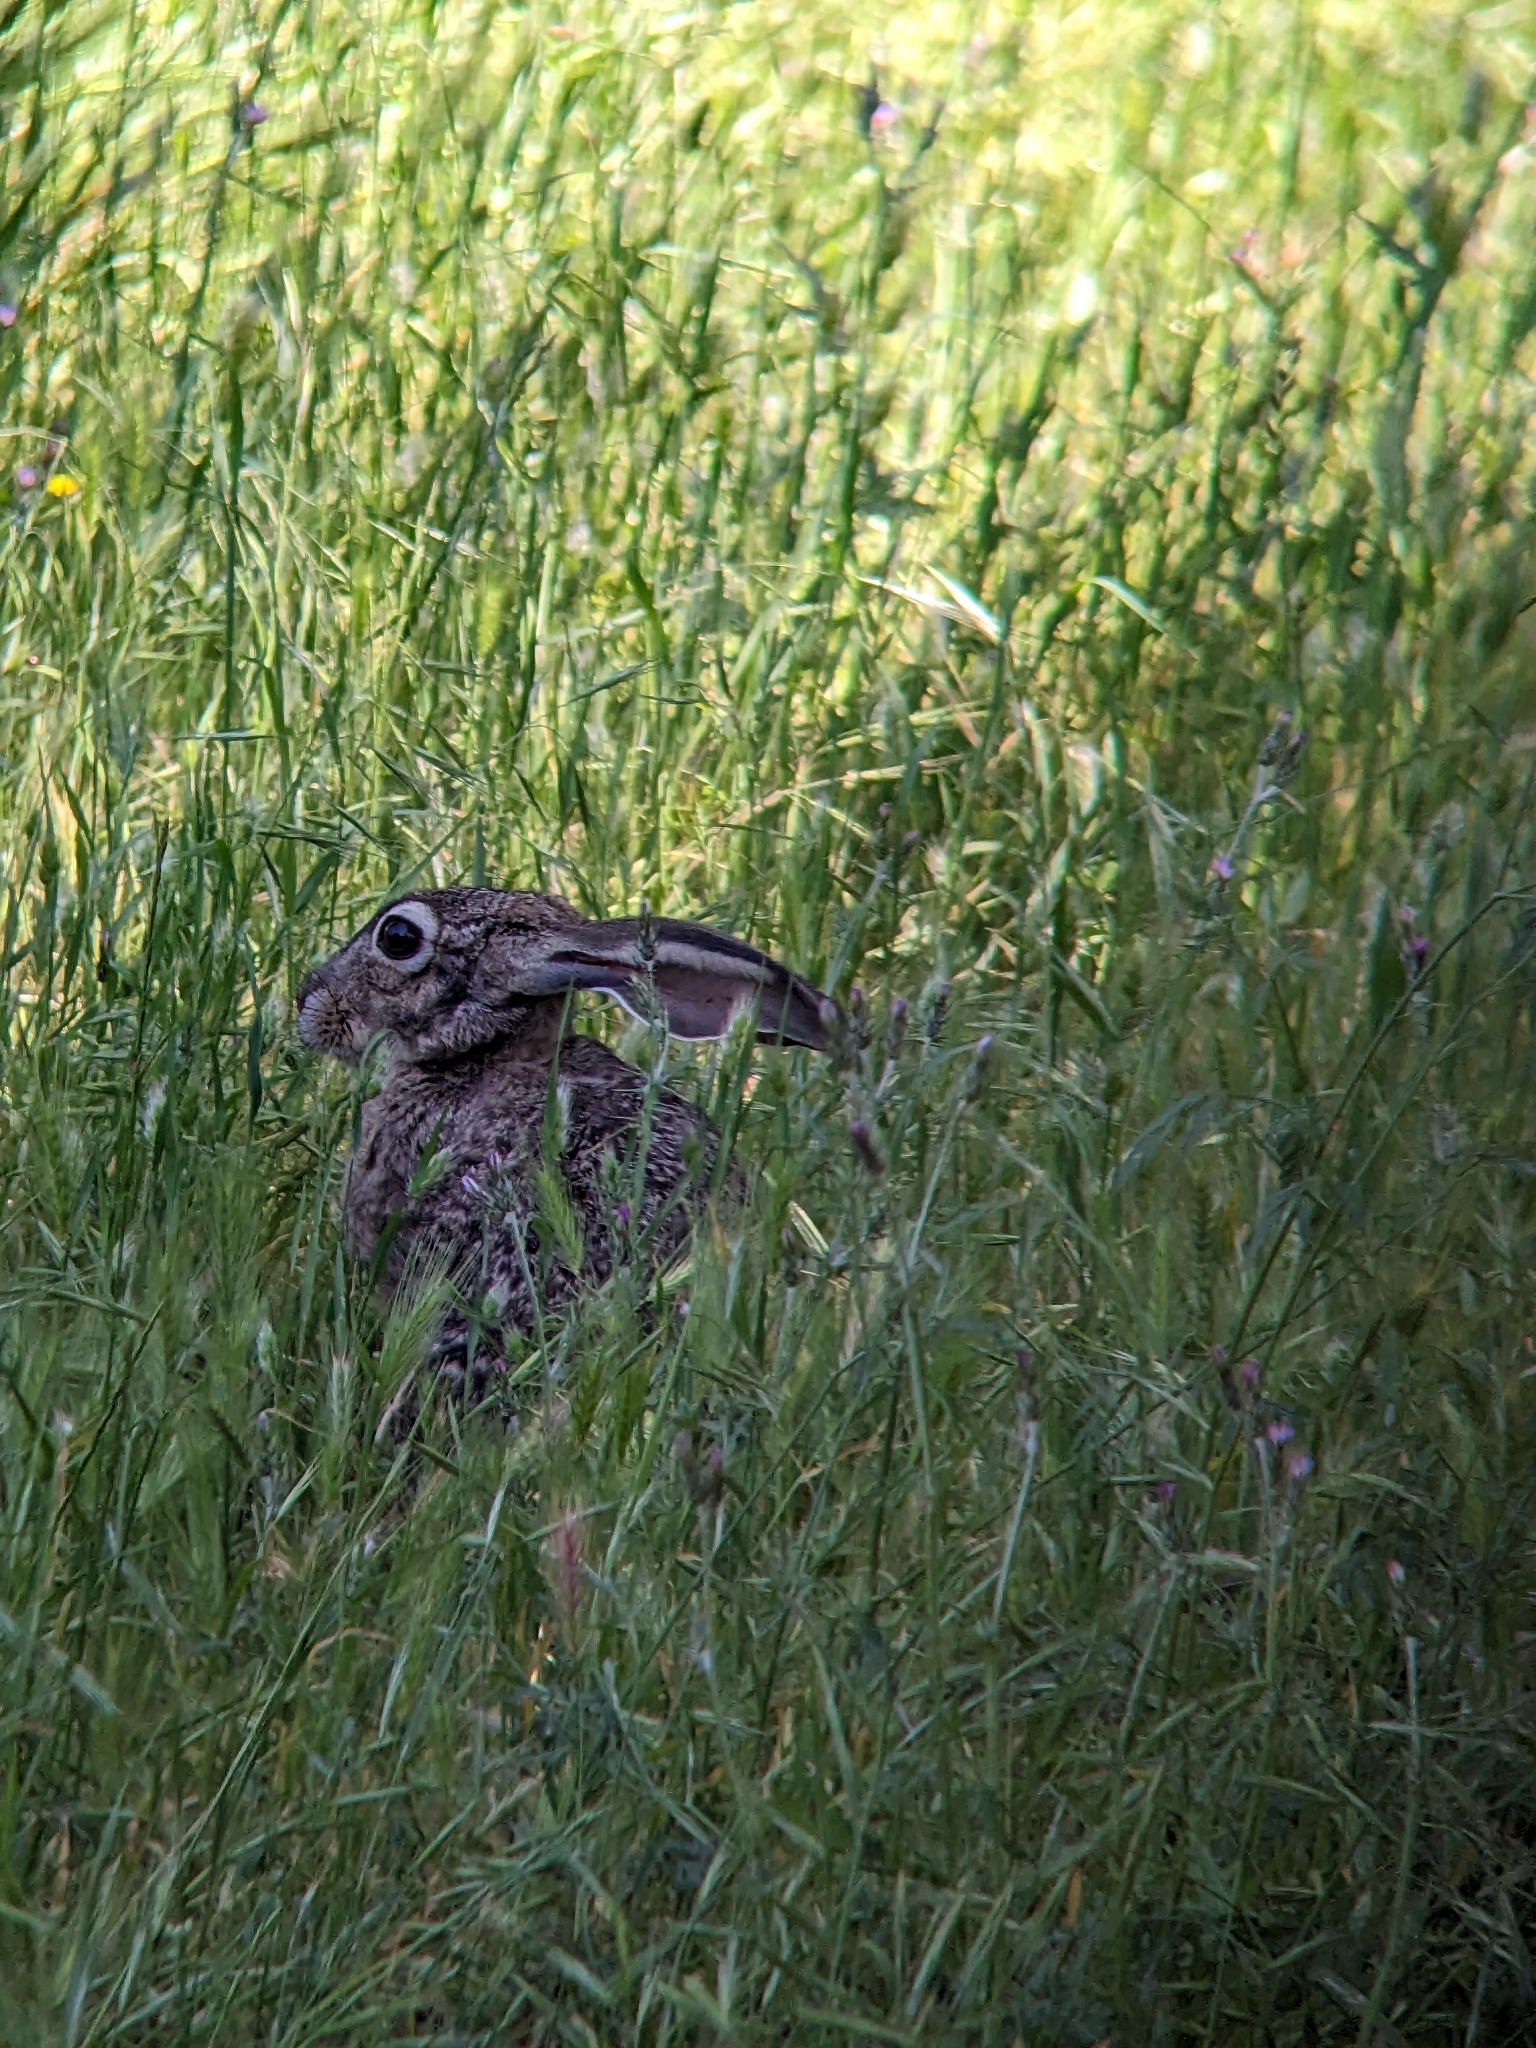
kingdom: Animalia
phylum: Chordata
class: Mammalia
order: Lagomorpha
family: Leporidae
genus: Lepus
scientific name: Lepus californicus
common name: Black-tailed jackrabbit
